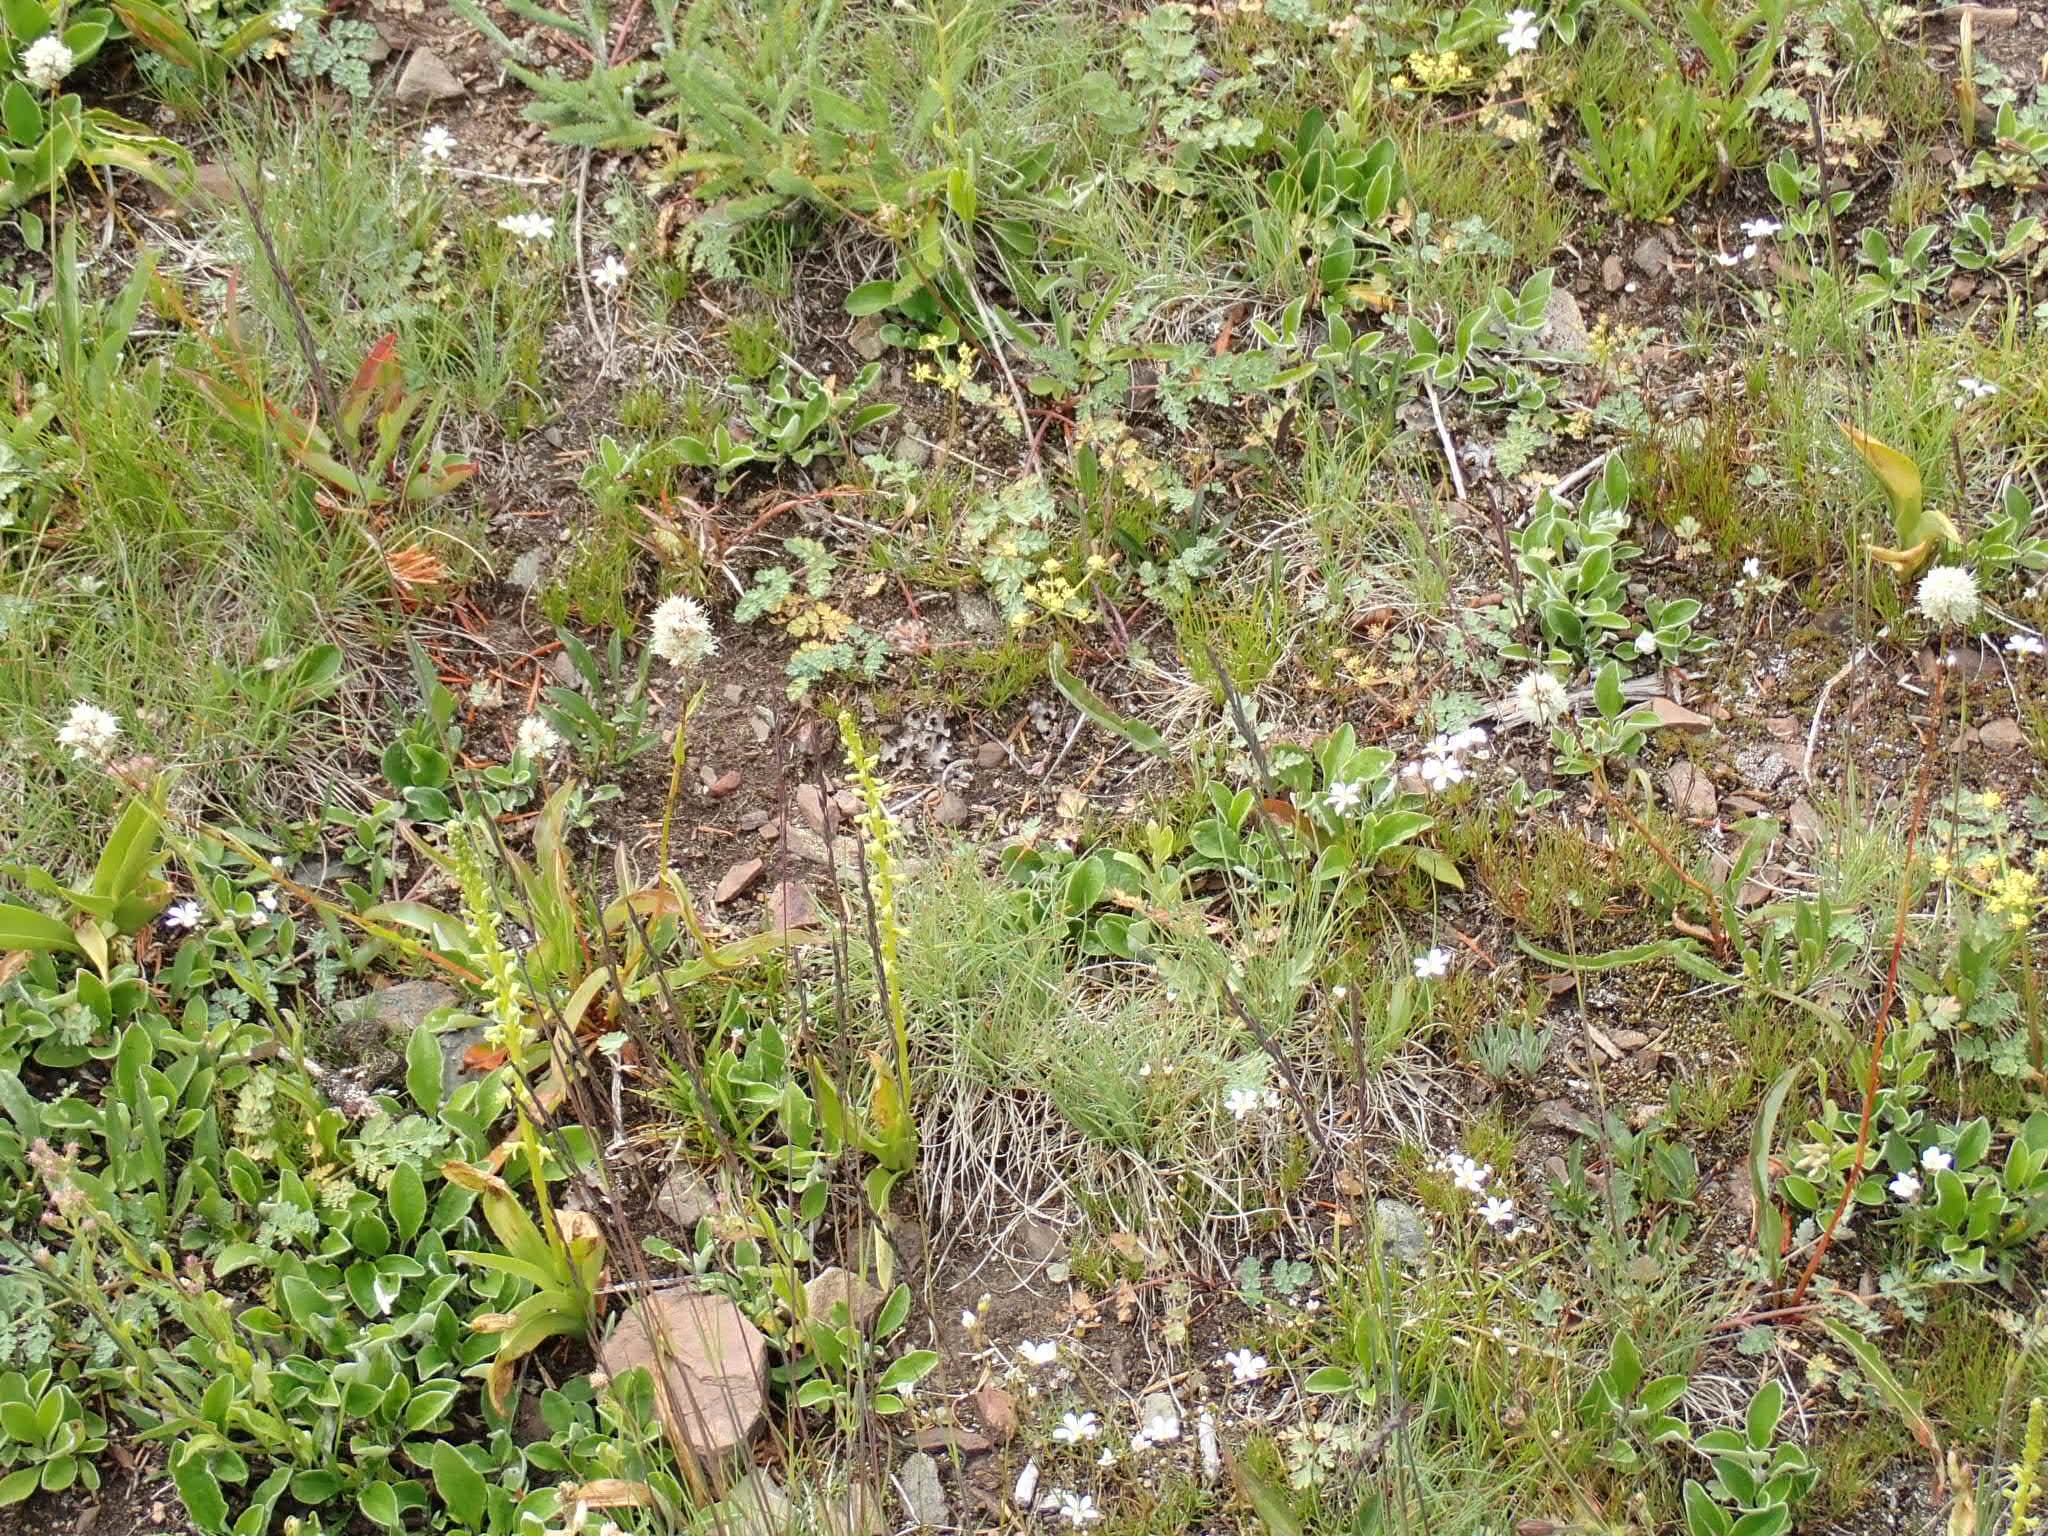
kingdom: Plantae
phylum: Tracheophyta
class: Liliopsida
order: Asparagales
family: Orchidaceae
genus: Platanthera
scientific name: Platanthera unalascensis
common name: Alaska bog orchid
